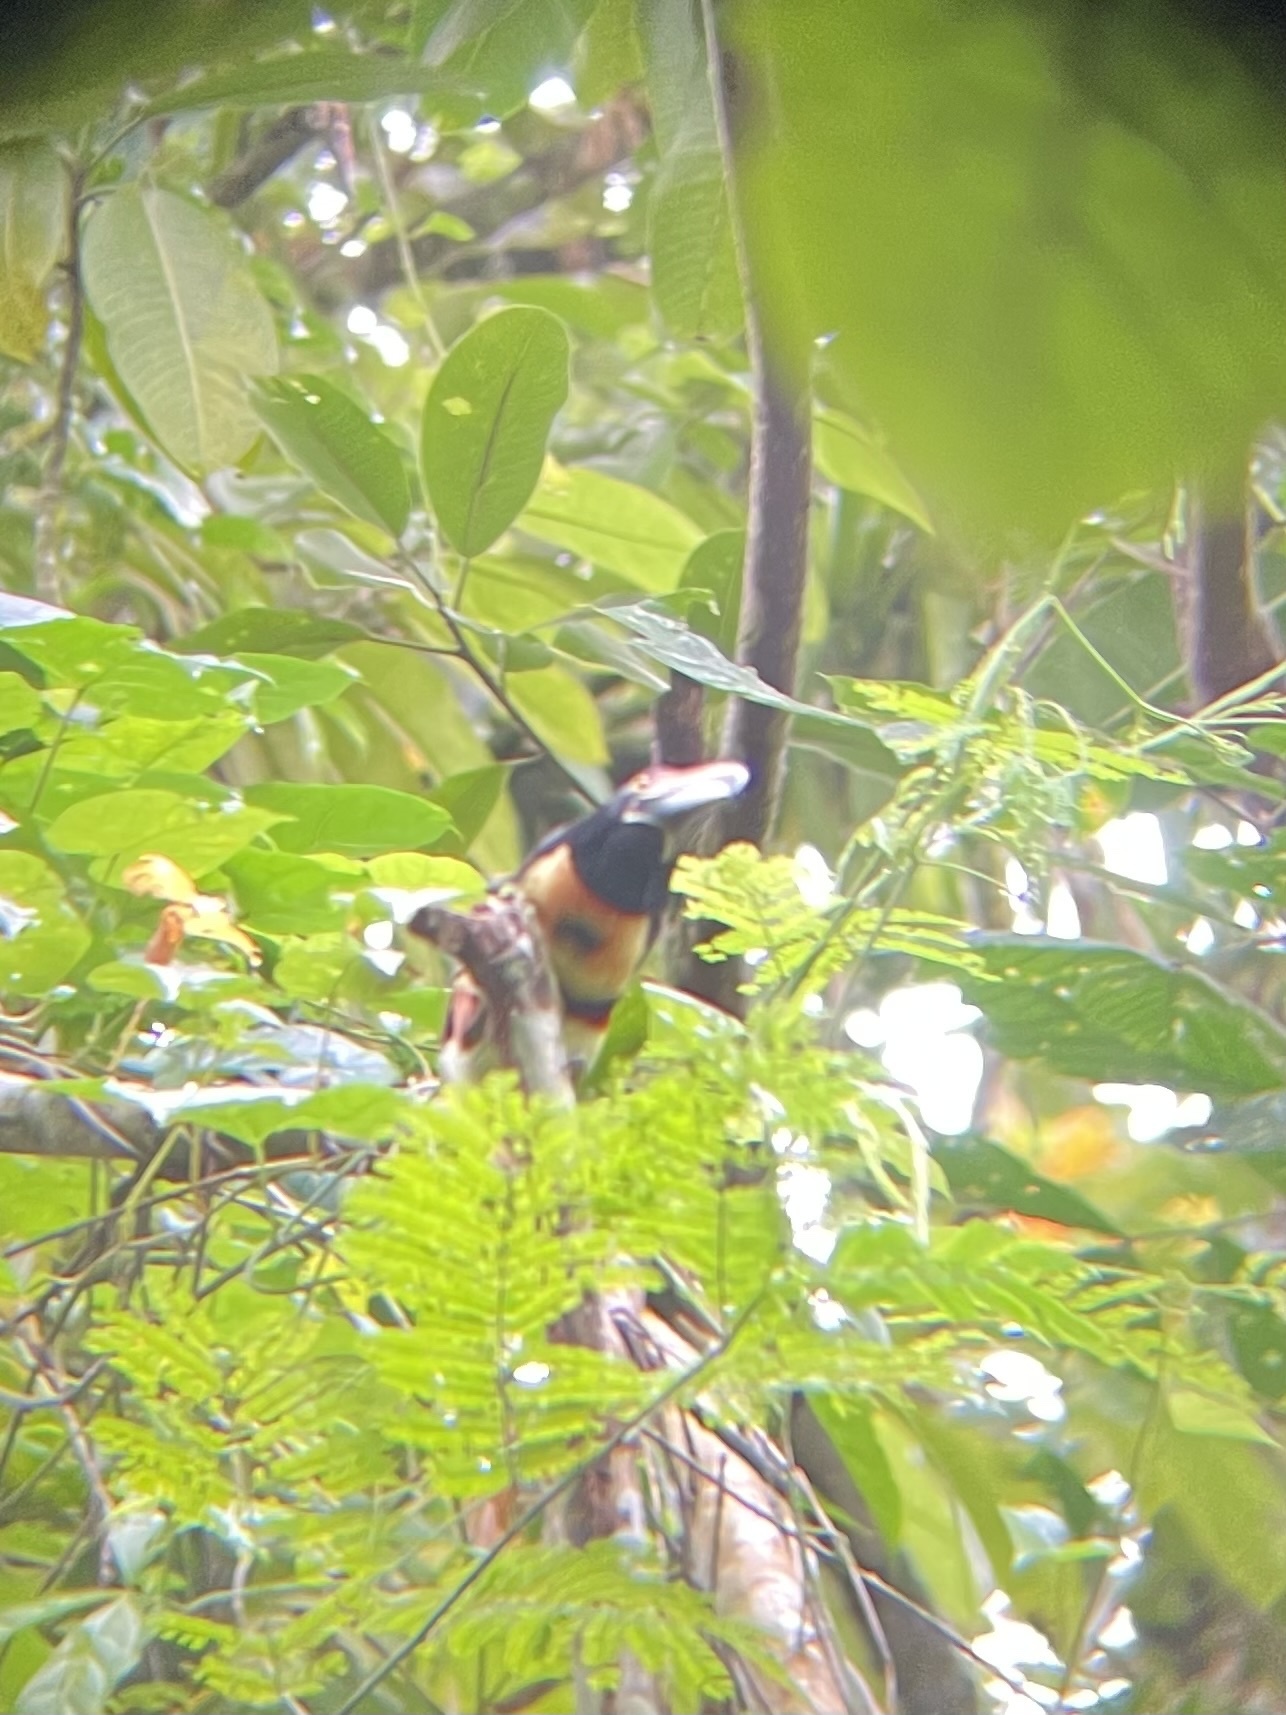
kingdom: Animalia
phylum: Chordata
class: Aves
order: Piciformes
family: Ramphastidae
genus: Pteroglossus
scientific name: Pteroglossus torquatus
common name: Collared aracari
